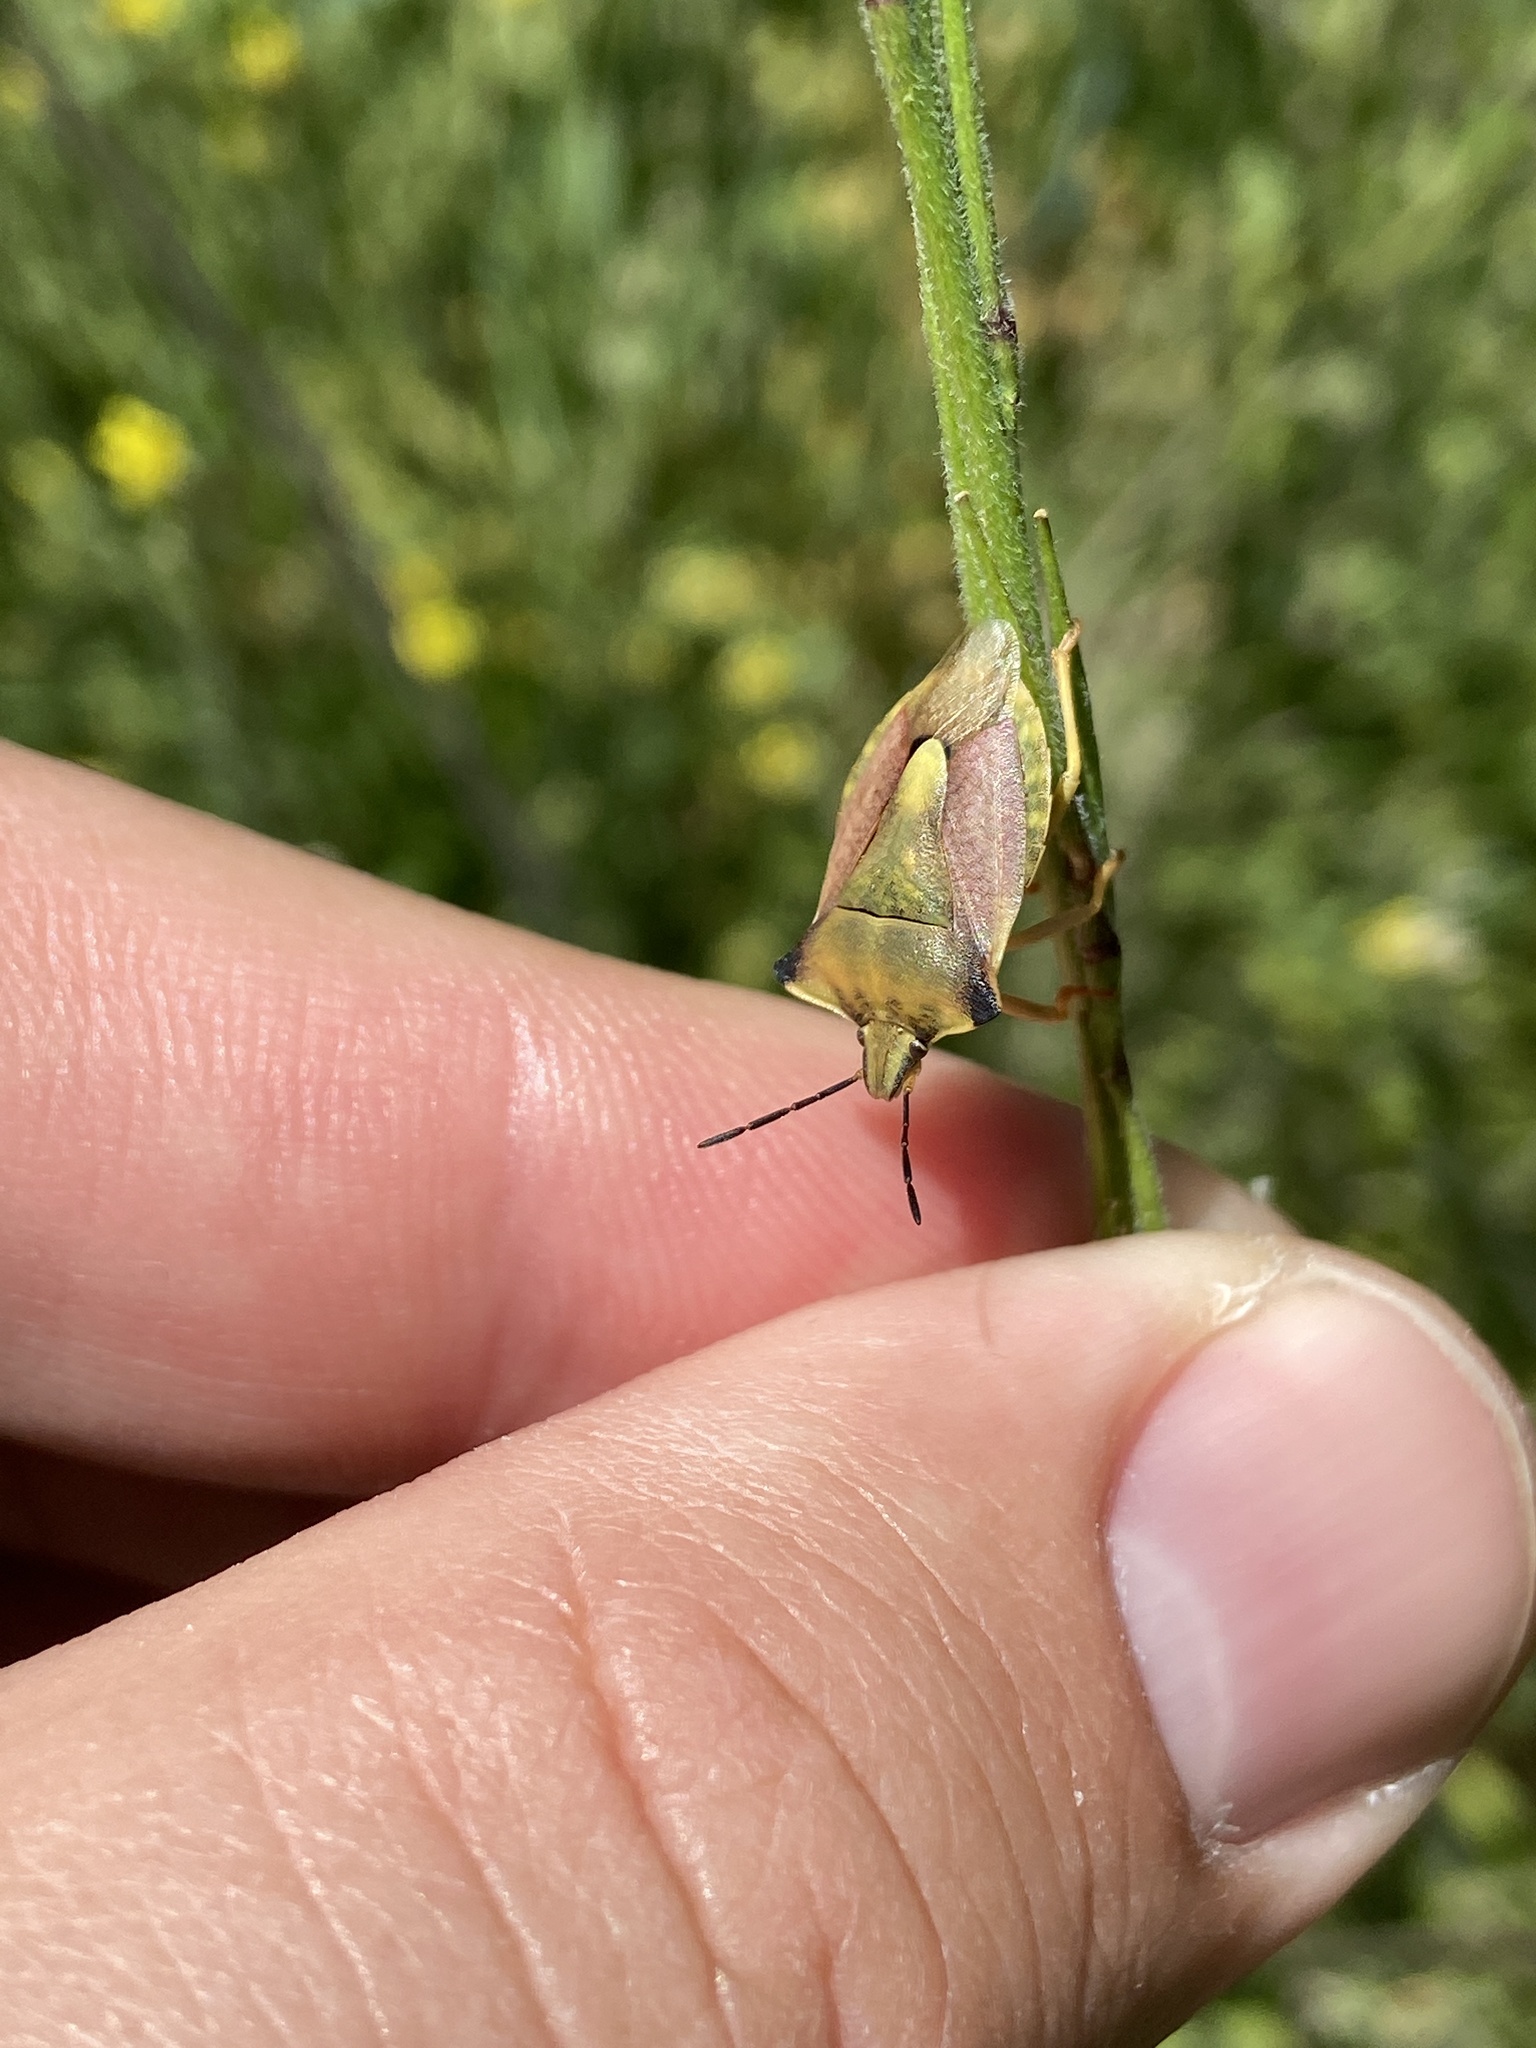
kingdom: Animalia
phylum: Arthropoda
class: Insecta
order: Hemiptera
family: Pentatomidae
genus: Carpocoris
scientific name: Carpocoris fuscispinus
